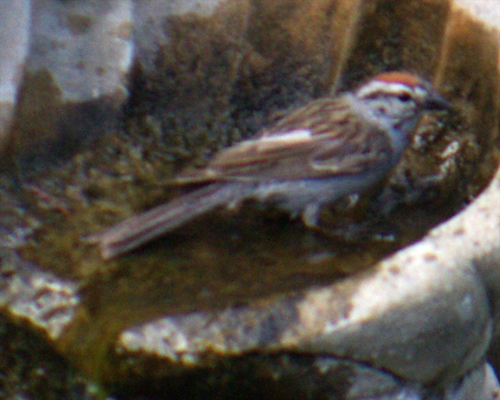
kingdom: Animalia
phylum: Chordata
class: Aves
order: Passeriformes
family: Passerellidae
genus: Spizella
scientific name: Spizella passerina
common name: Chipping sparrow
